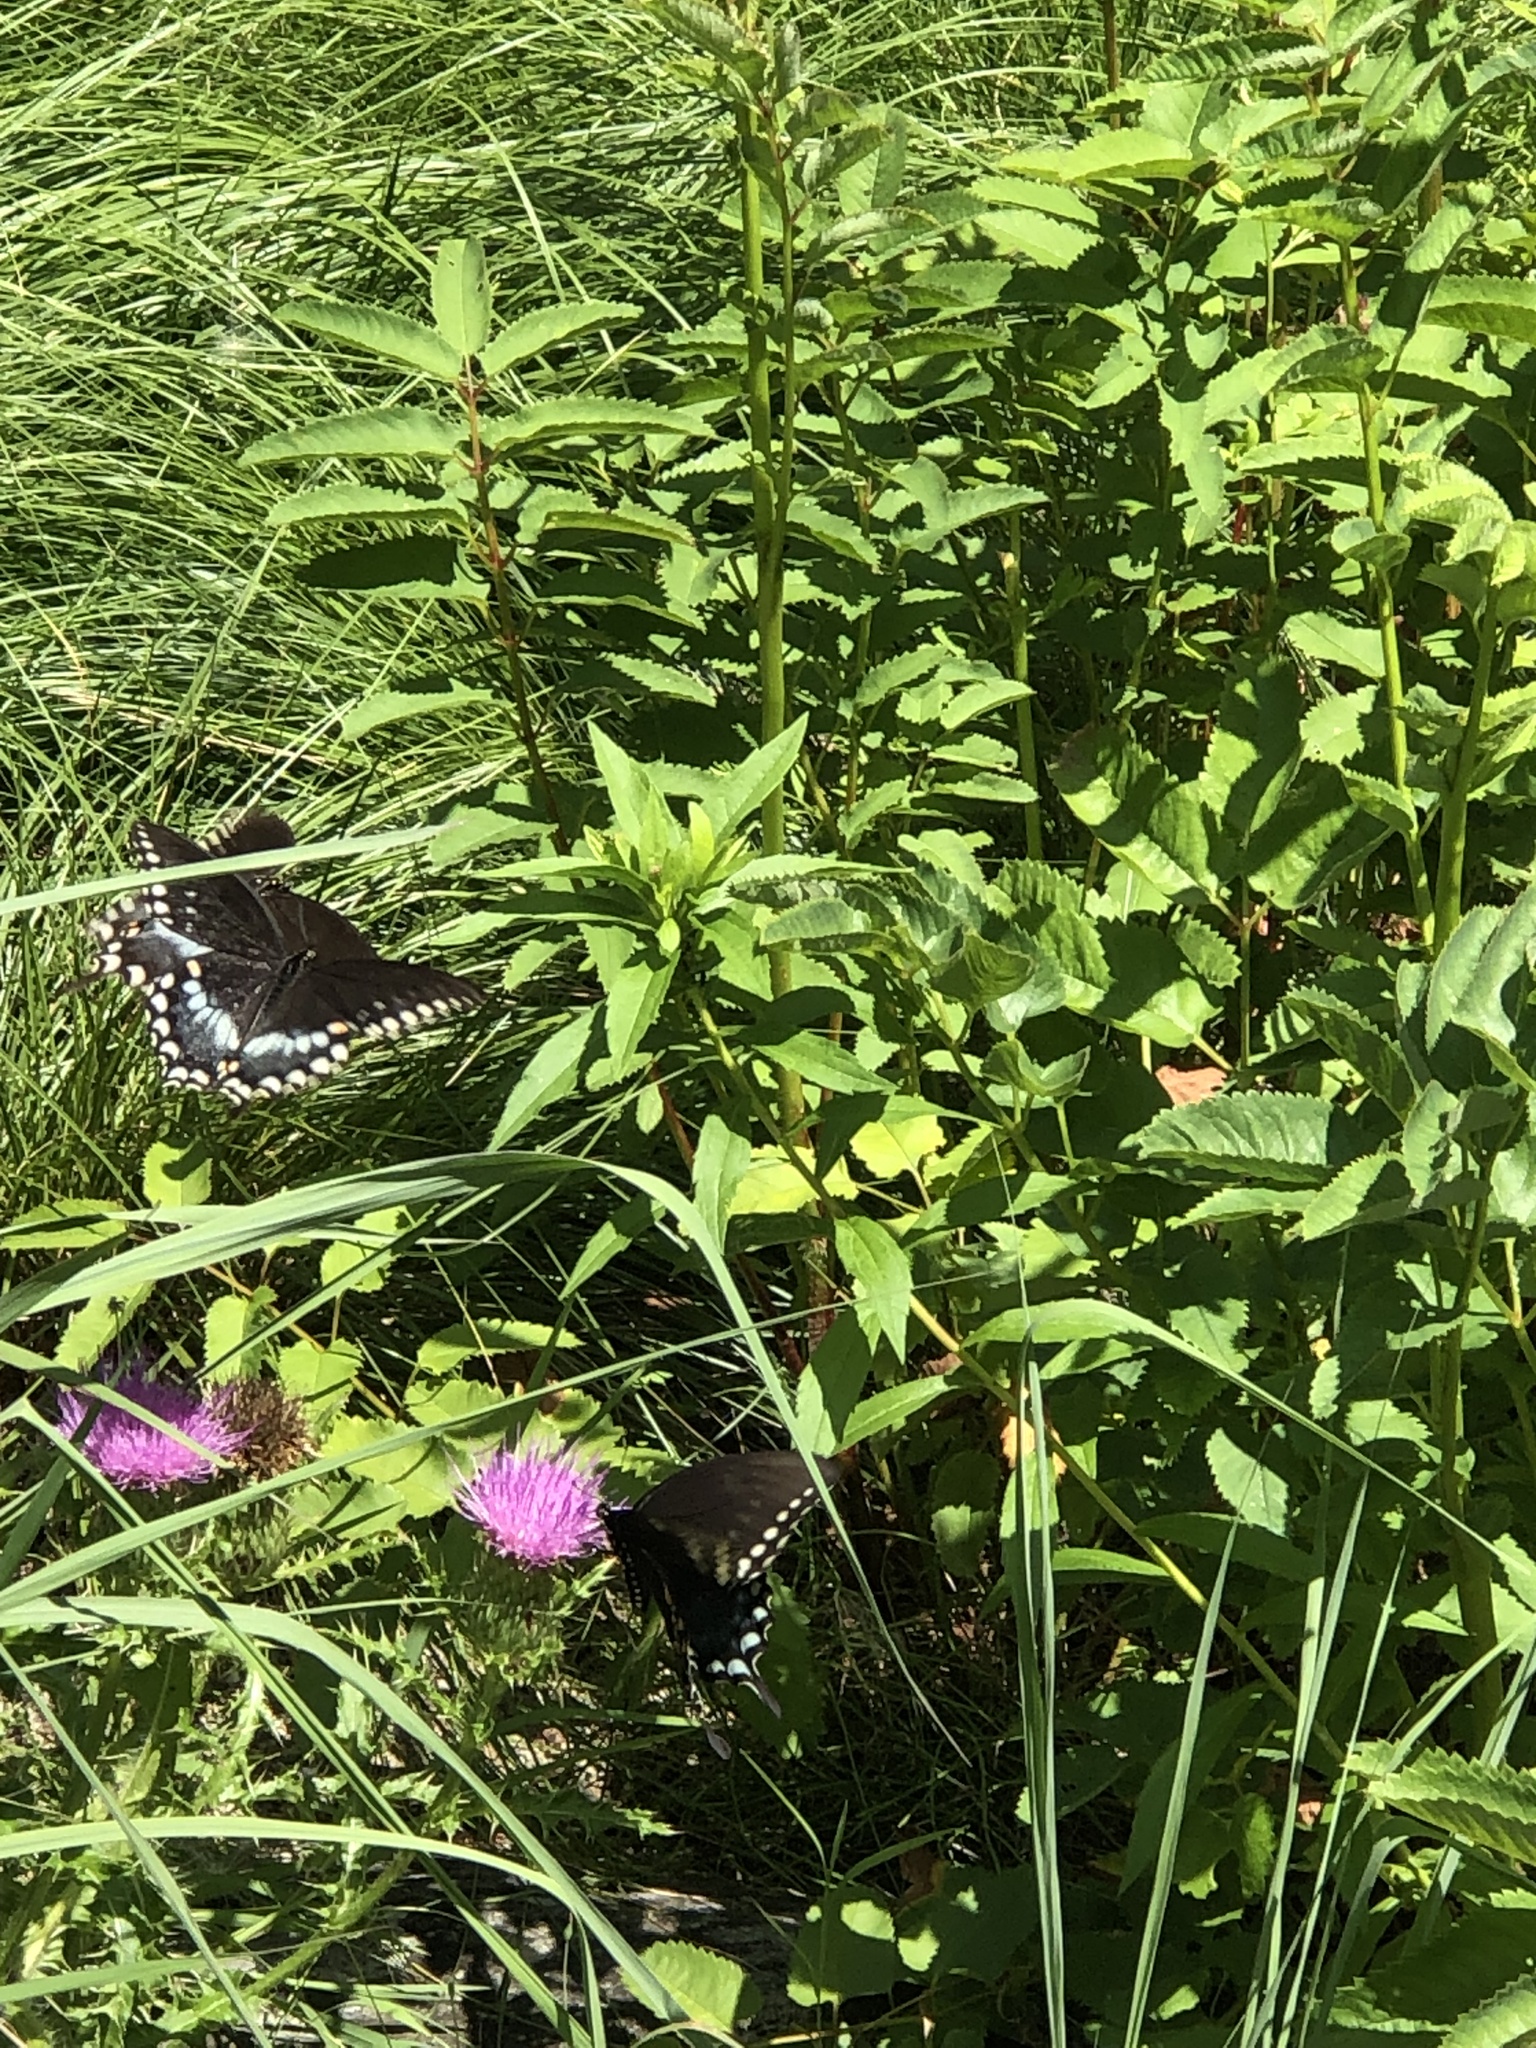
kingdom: Animalia
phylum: Arthropoda
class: Insecta
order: Lepidoptera
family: Papilionidae
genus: Papilio
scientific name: Papilio troilus
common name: Spicebush swallowtail
